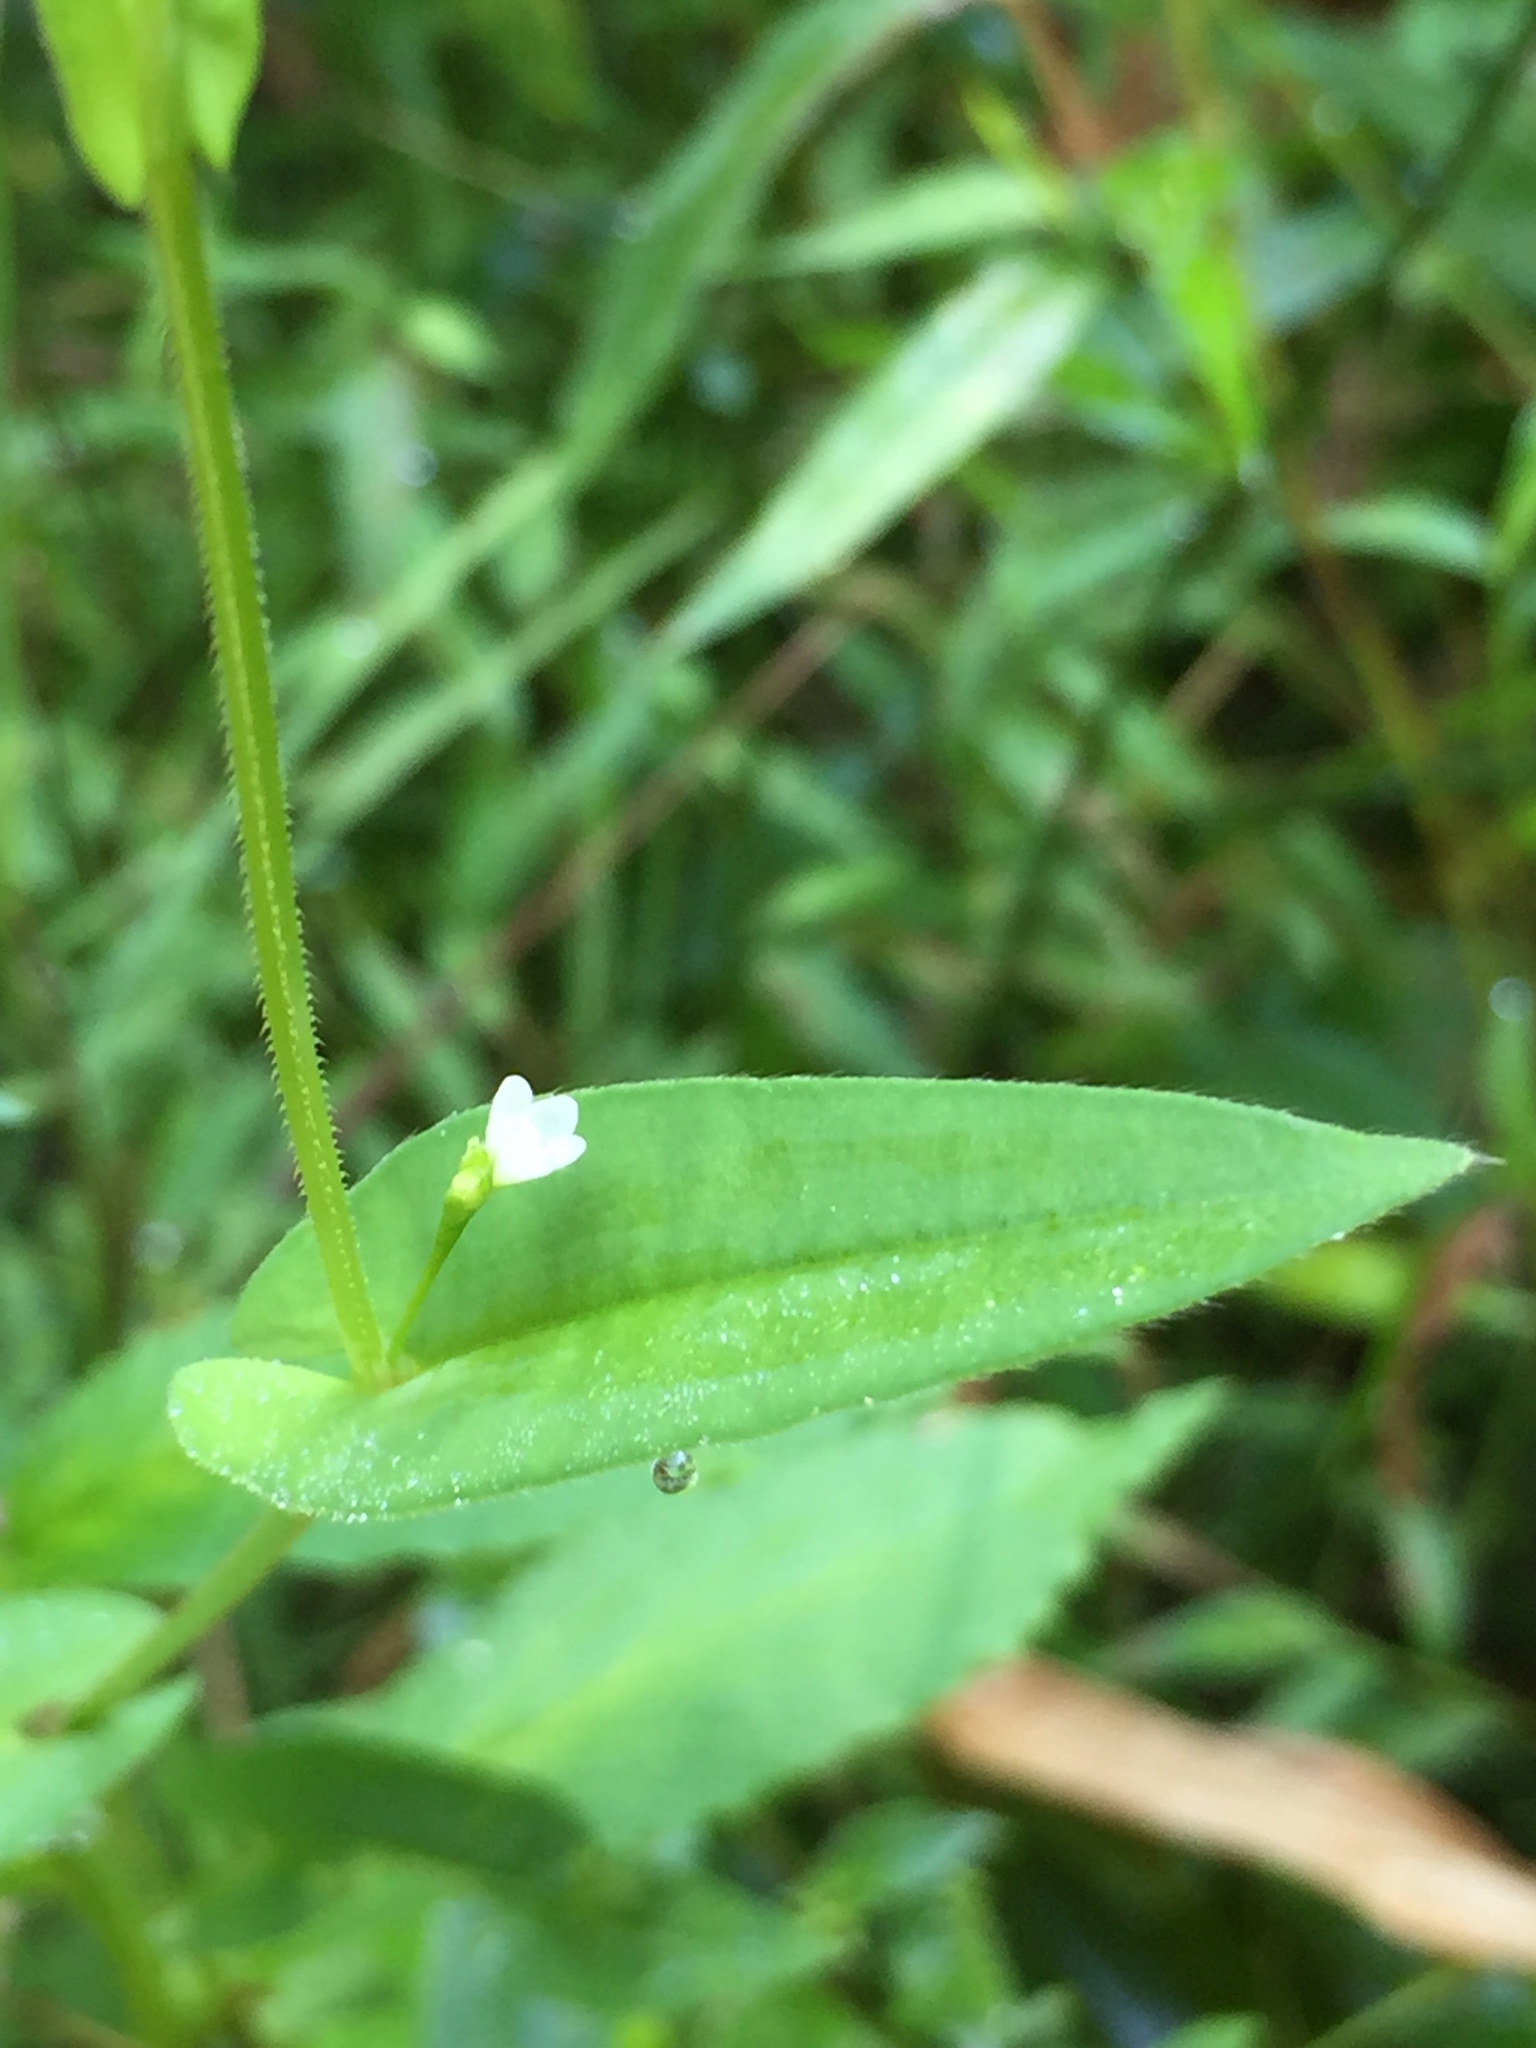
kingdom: Plantae
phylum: Tracheophyta
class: Magnoliopsida
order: Caryophyllales
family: Polygonaceae
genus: Persicaria
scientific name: Persicaria sagittata
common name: American tearthumb
